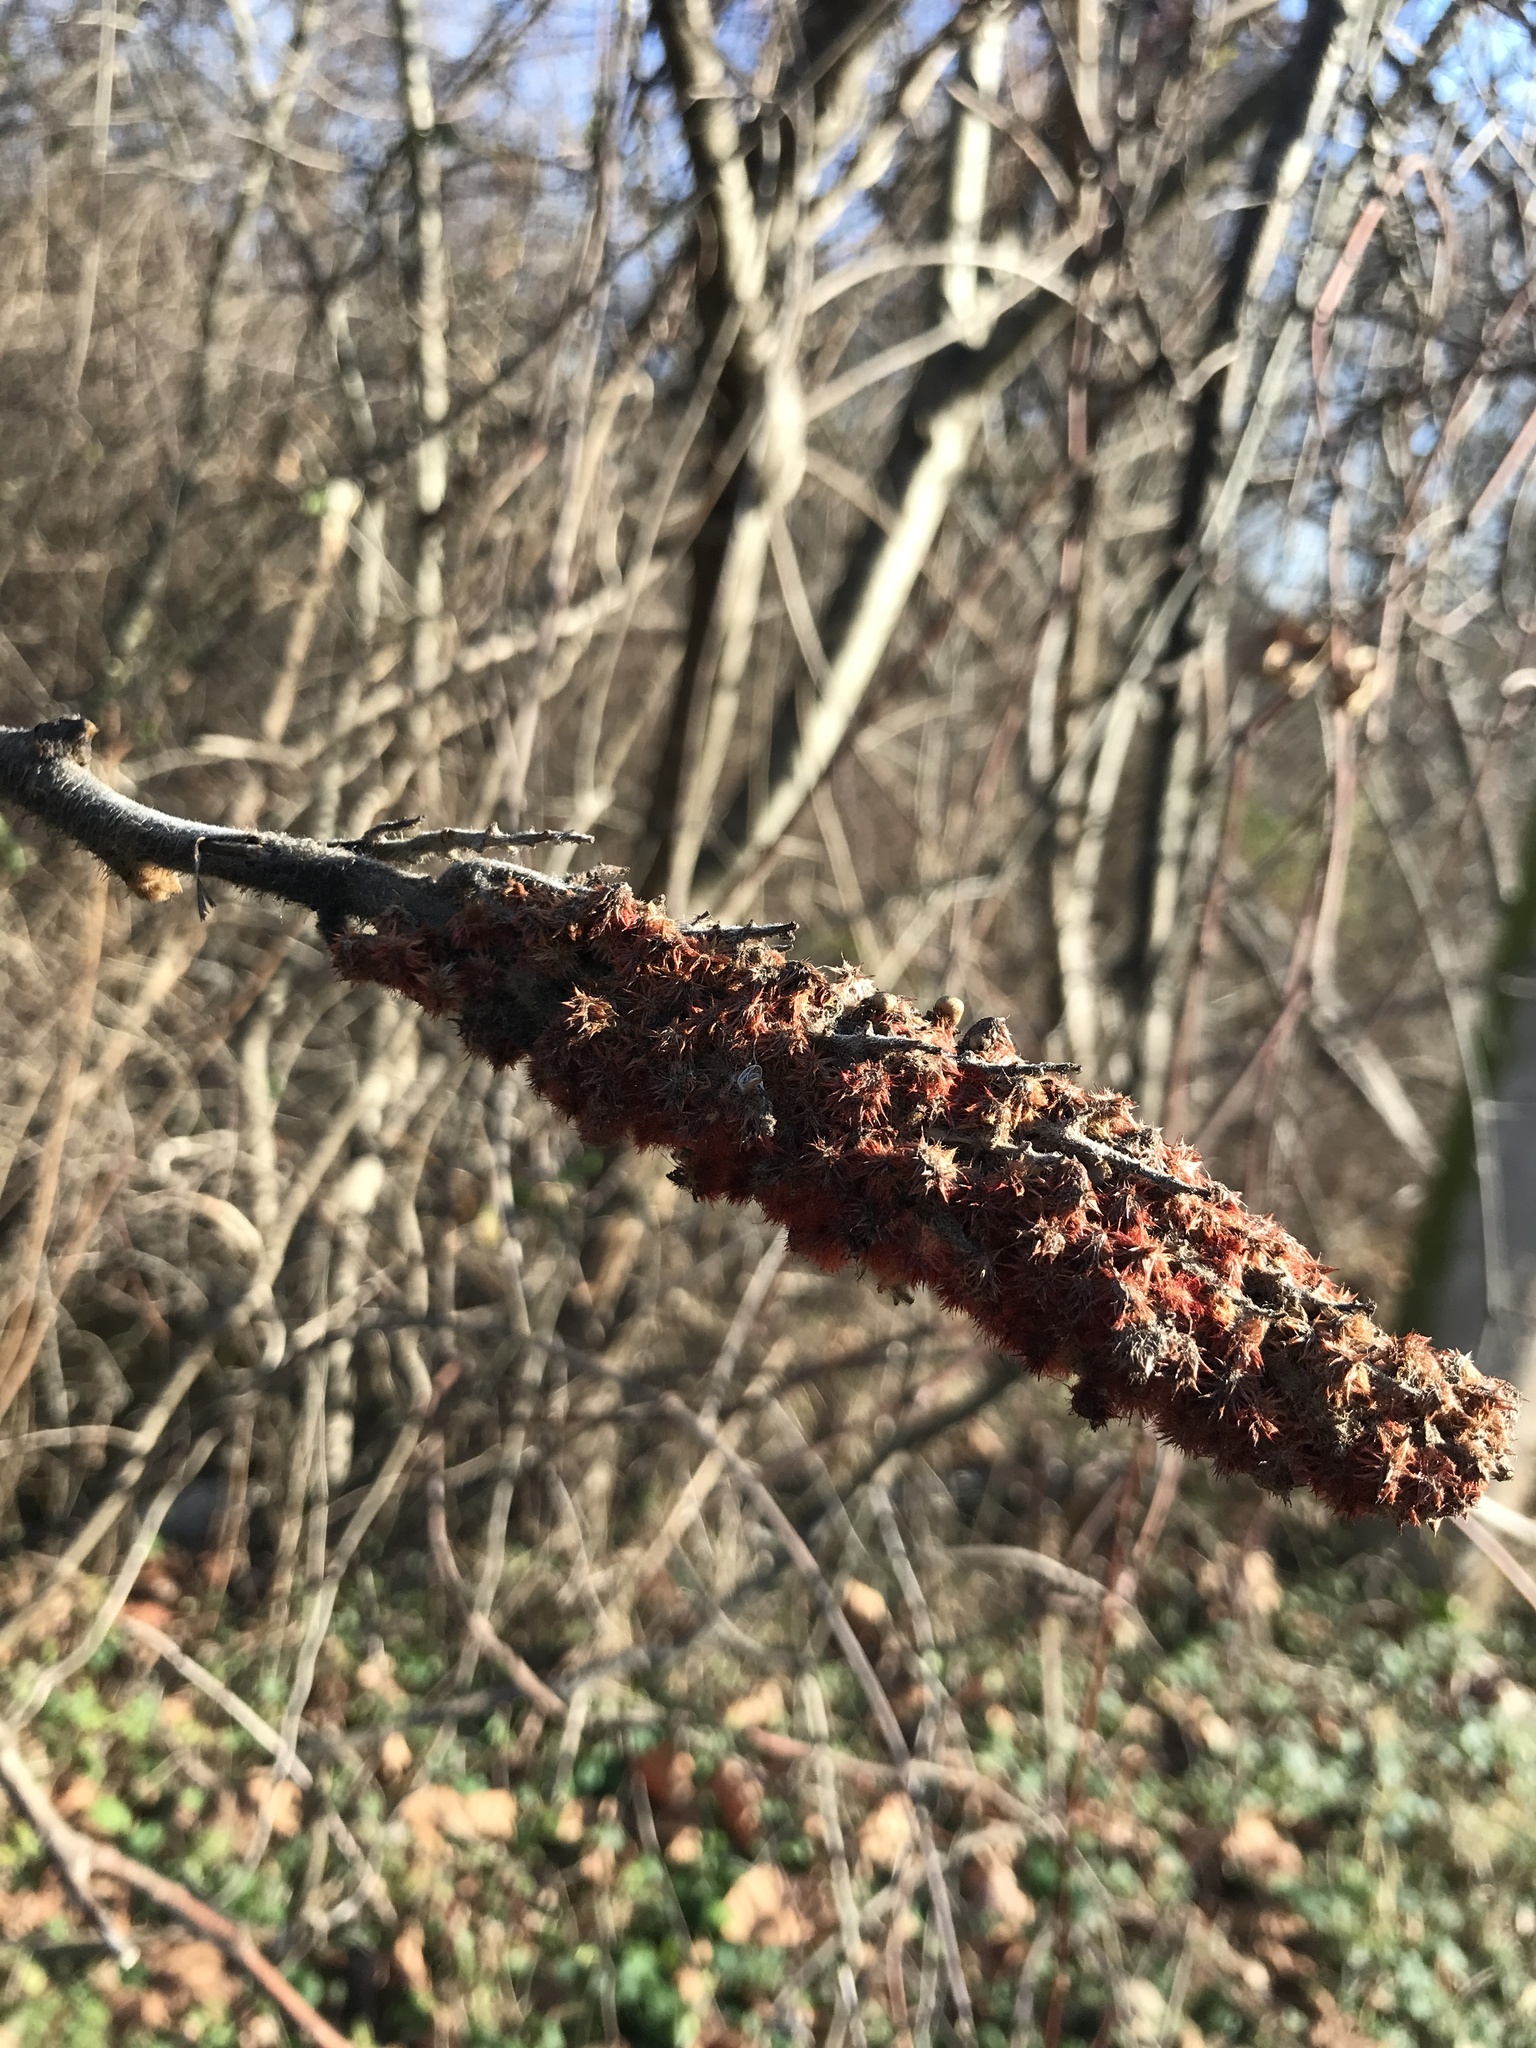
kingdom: Plantae
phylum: Tracheophyta
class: Magnoliopsida
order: Sapindales
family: Anacardiaceae
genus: Rhus
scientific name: Rhus typhina
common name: Staghorn sumac
